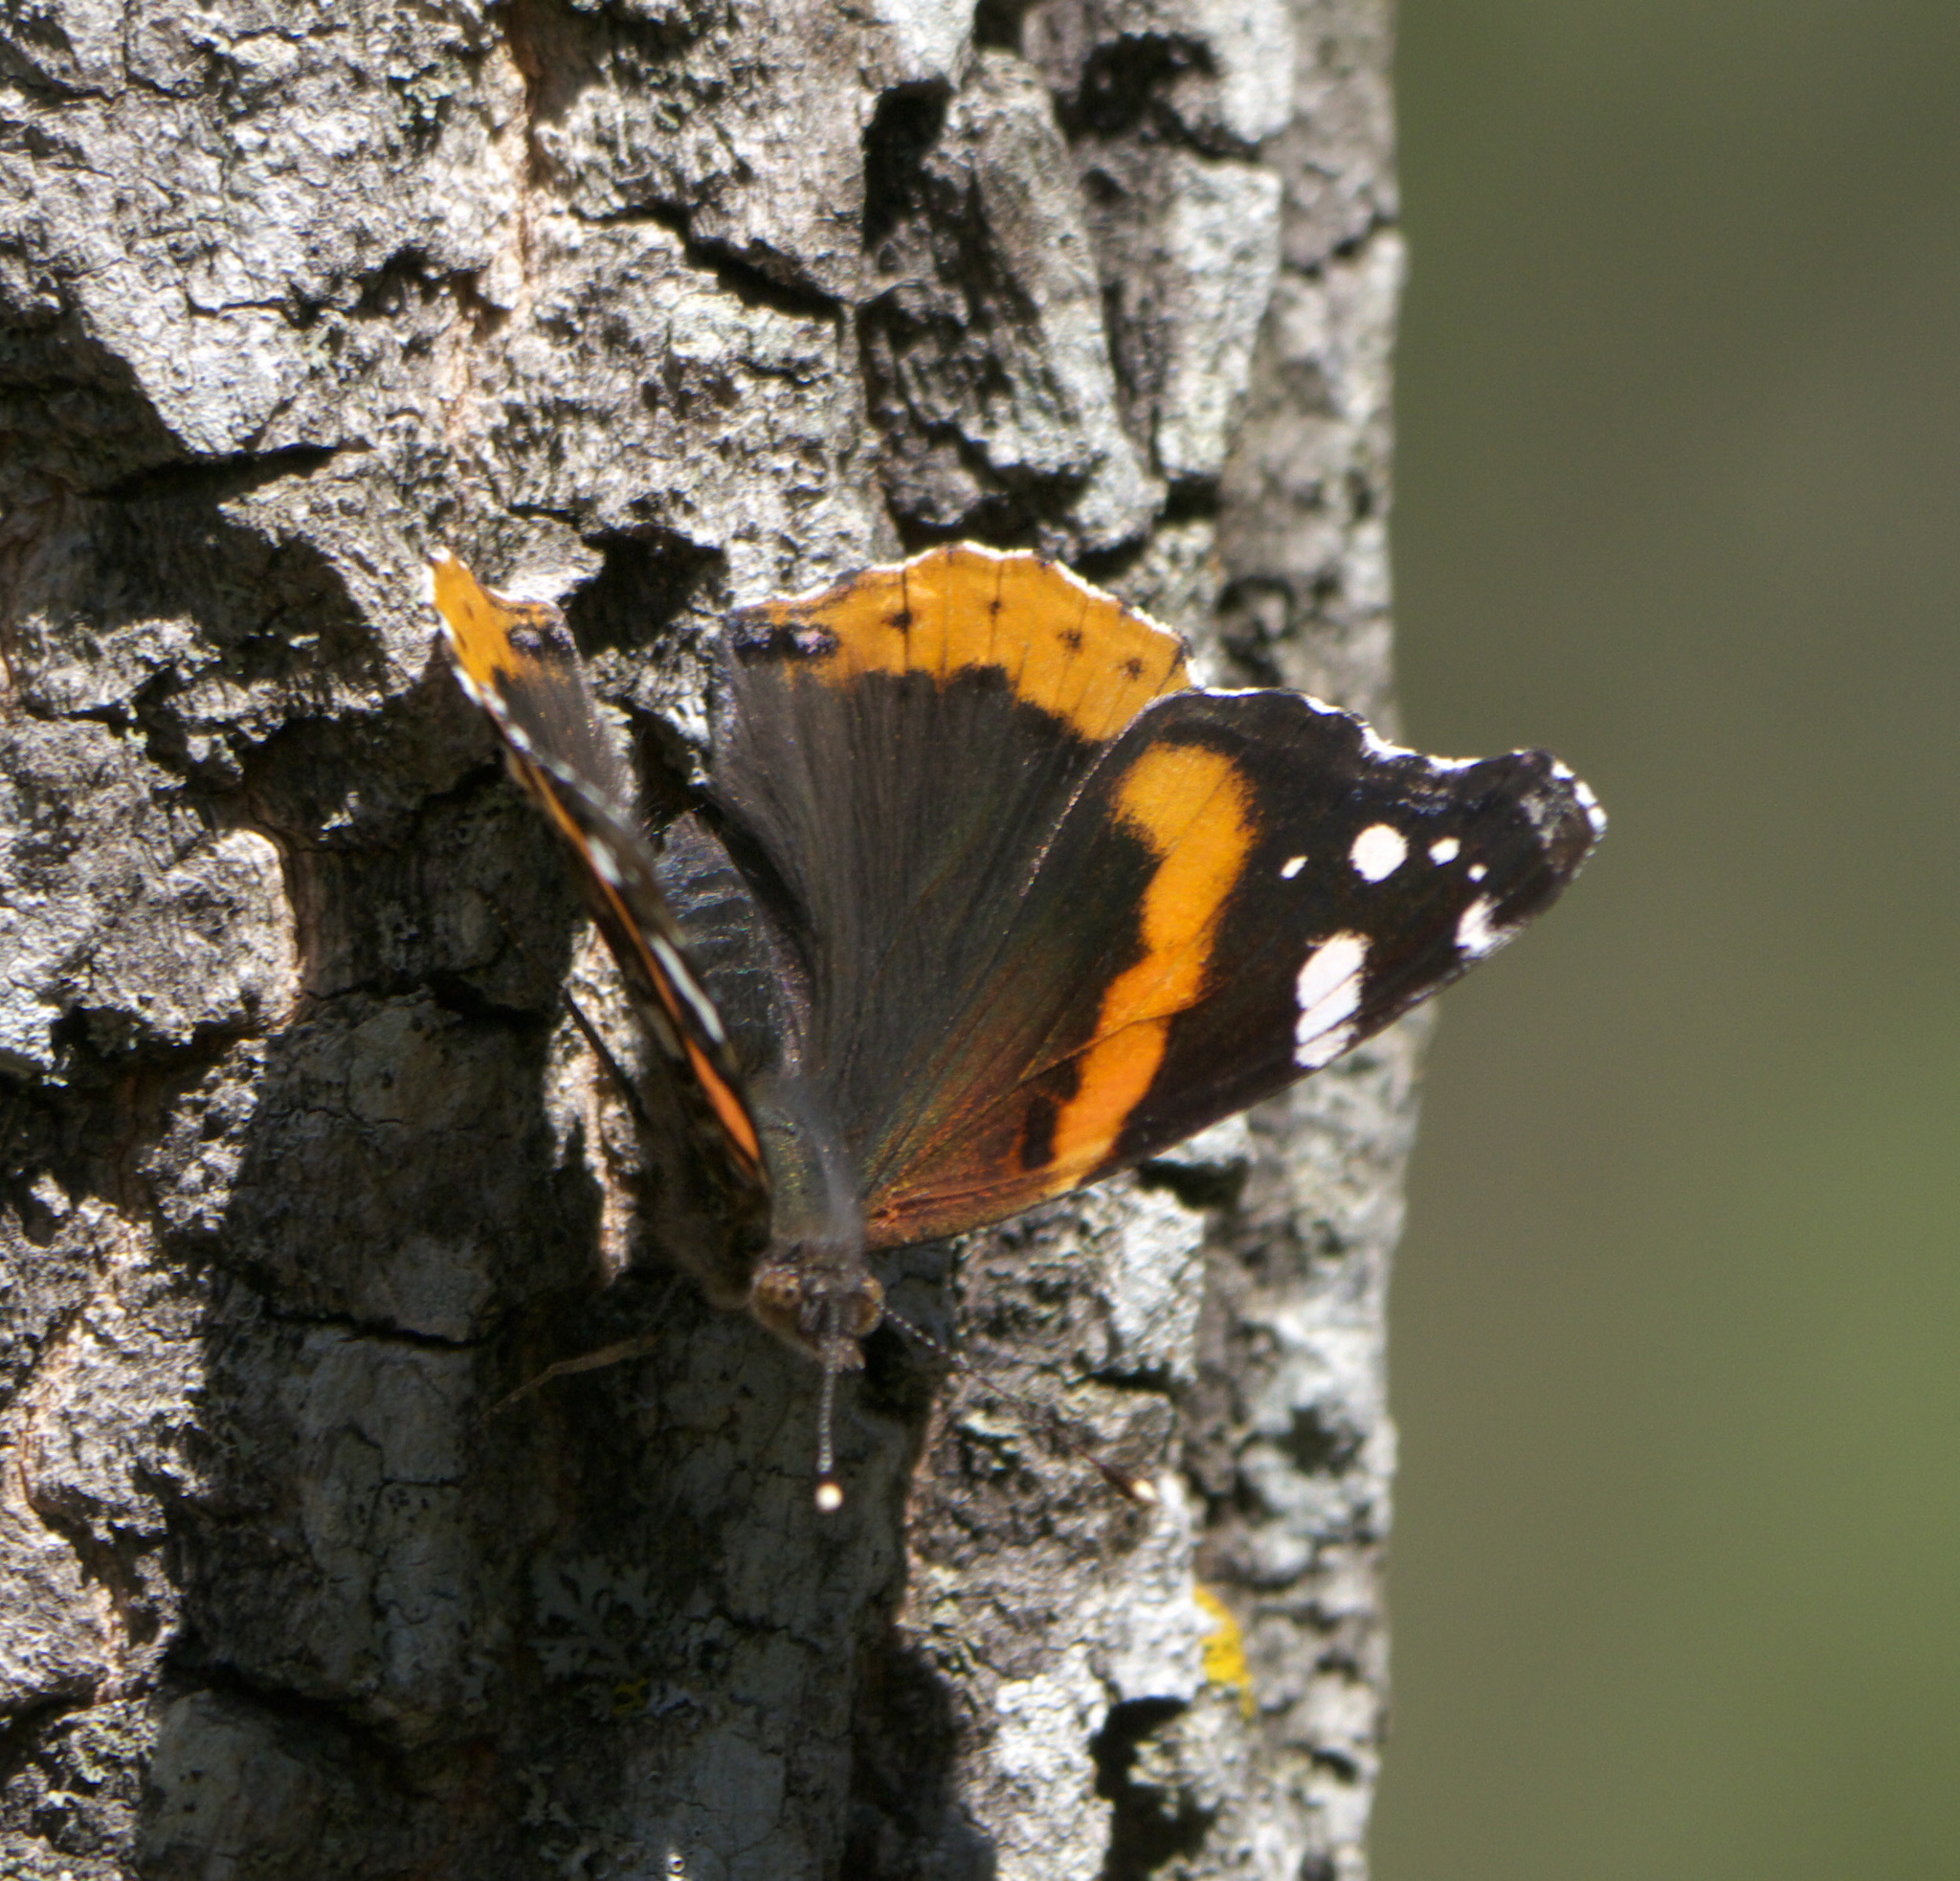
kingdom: Animalia
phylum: Arthropoda
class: Insecta
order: Lepidoptera
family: Nymphalidae
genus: Vanessa
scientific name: Vanessa atalanta
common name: Red admiral
